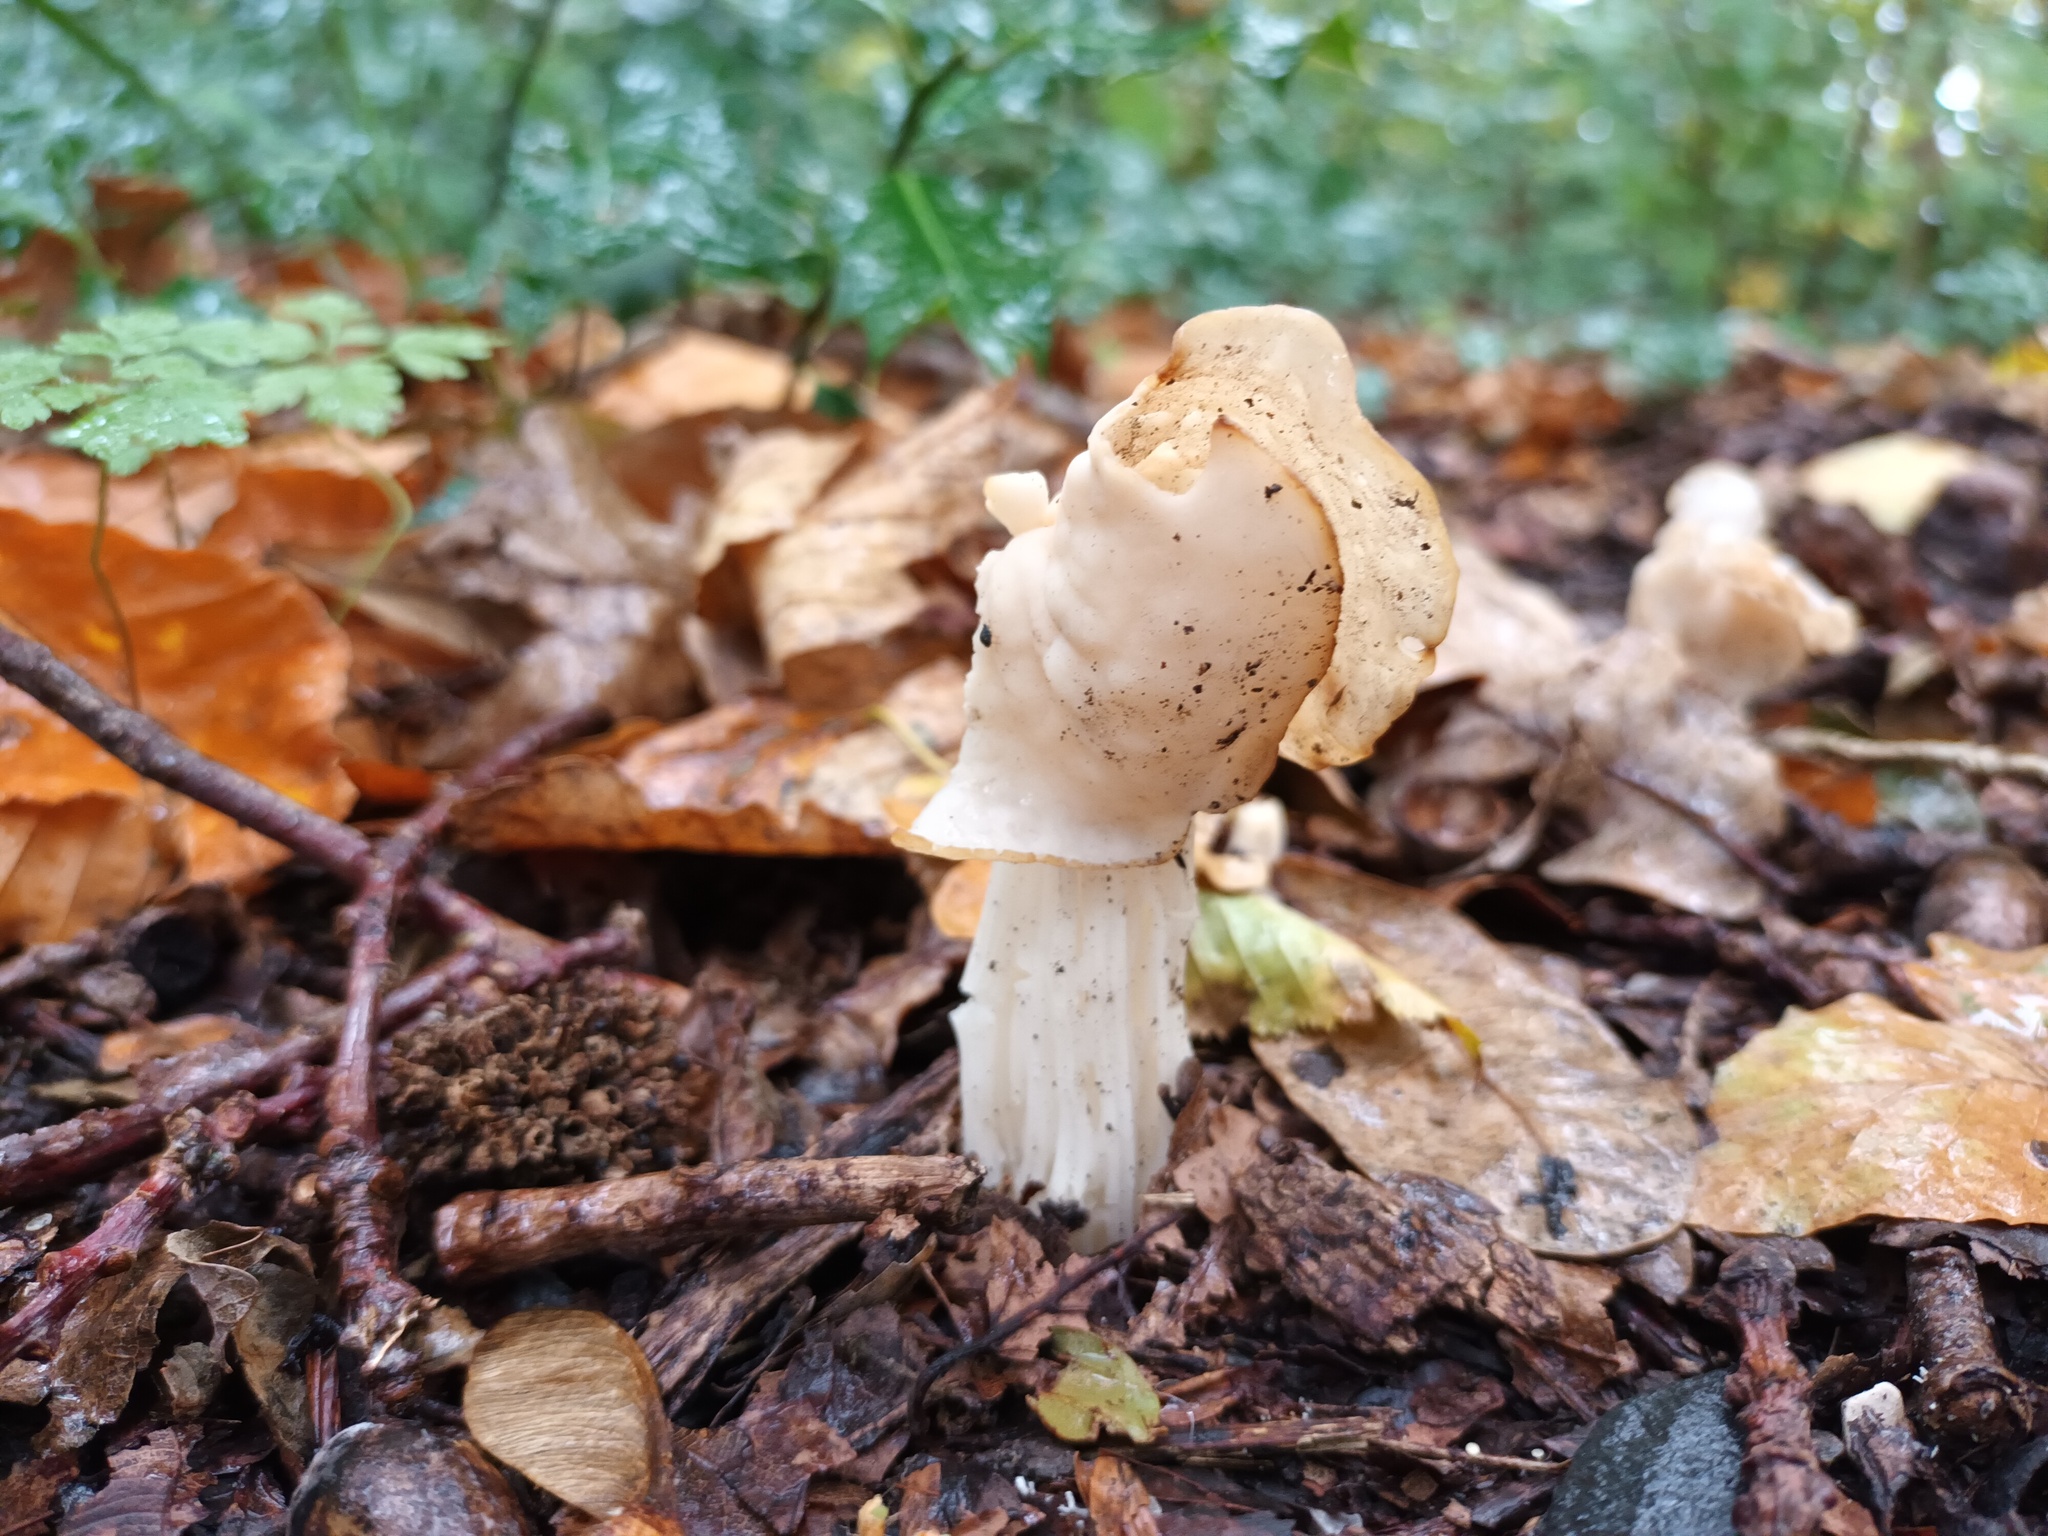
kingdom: Fungi
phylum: Ascomycota
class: Pezizomycetes
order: Pezizales
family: Helvellaceae
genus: Helvella
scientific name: Helvella crispa
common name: White saddle
